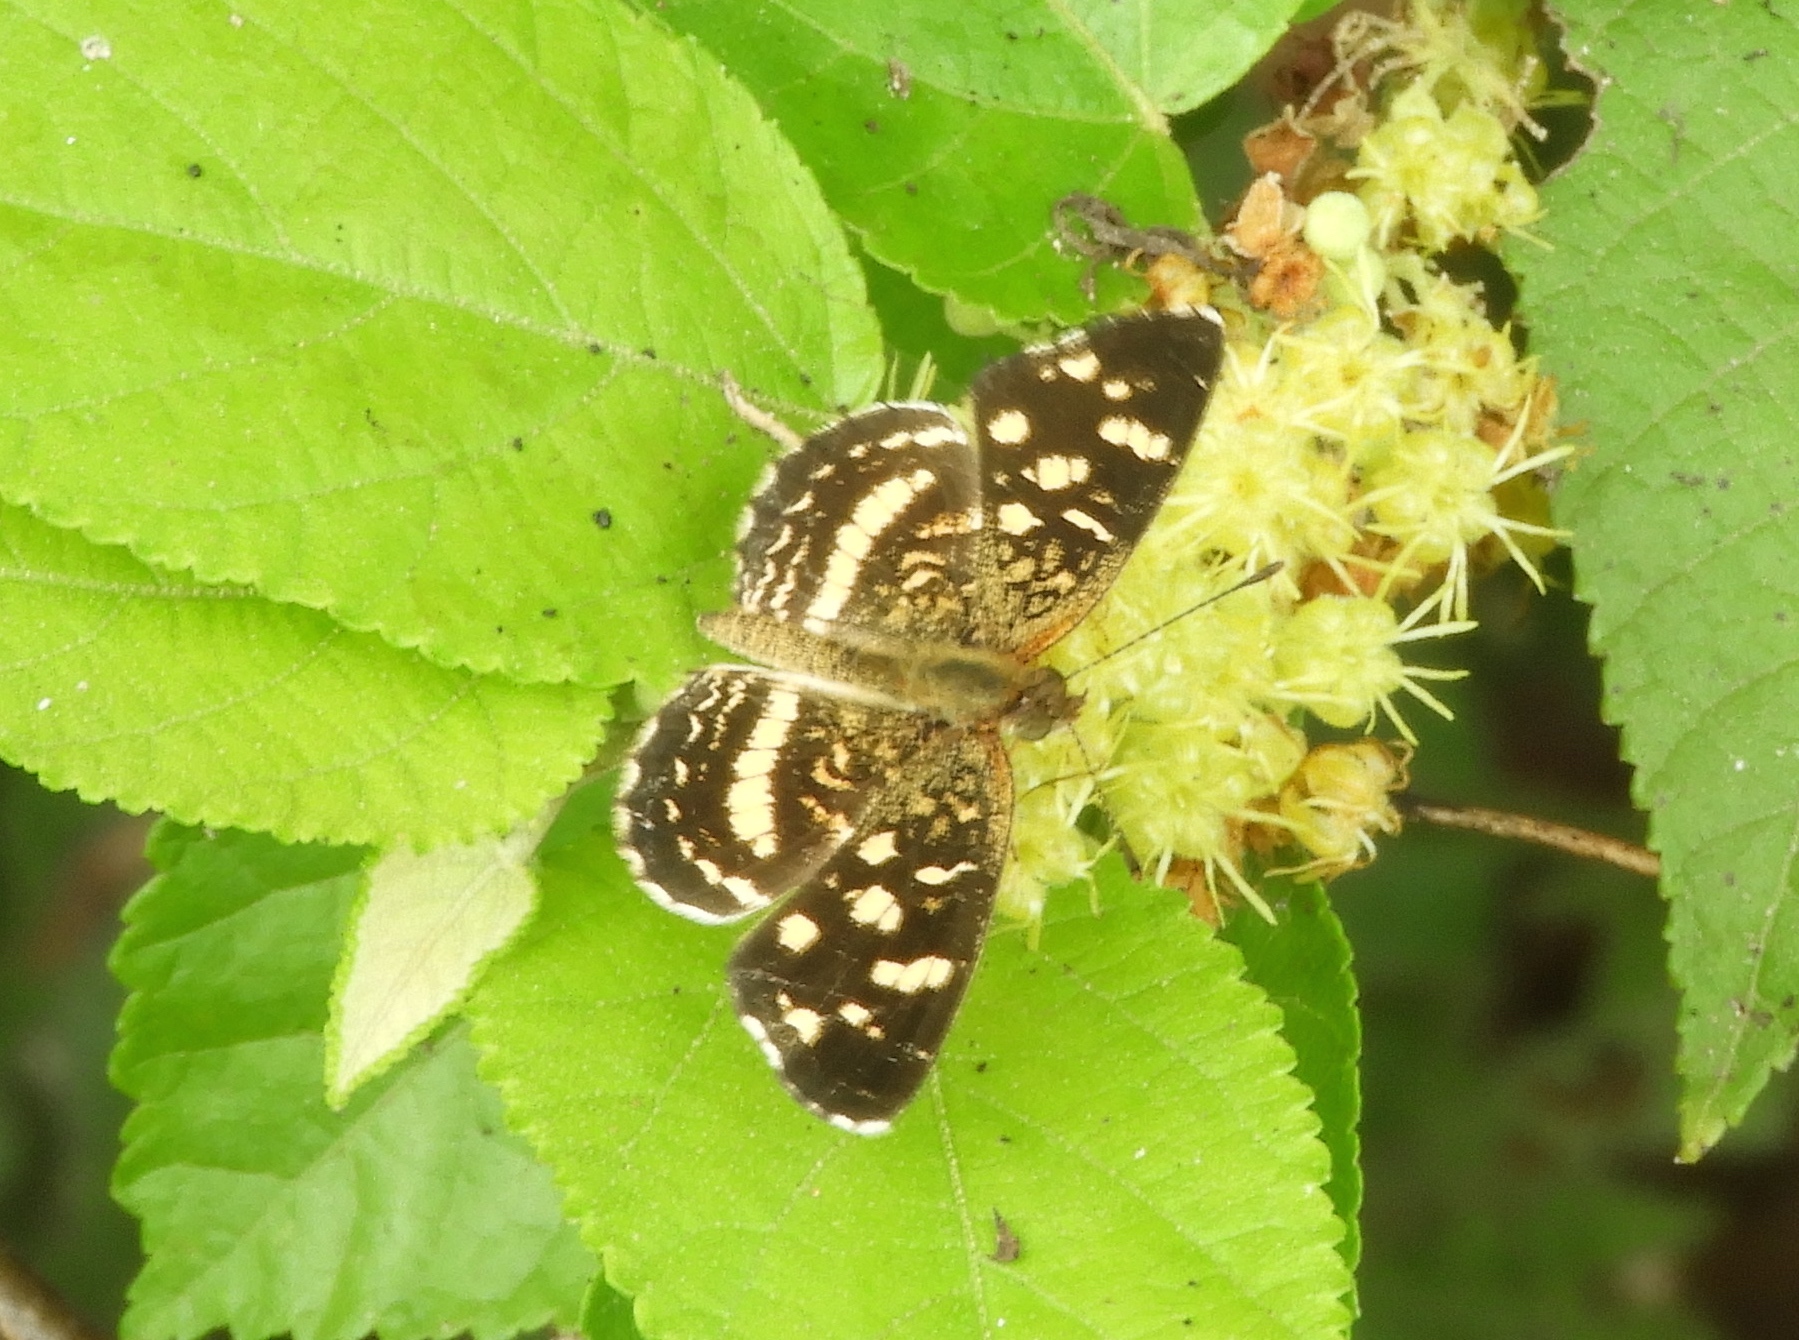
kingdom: Animalia
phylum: Arthropoda
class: Insecta
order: Lepidoptera
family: Nymphalidae
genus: Anthanassa
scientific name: Anthanassa tulcis
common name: Pale-banded crescent
